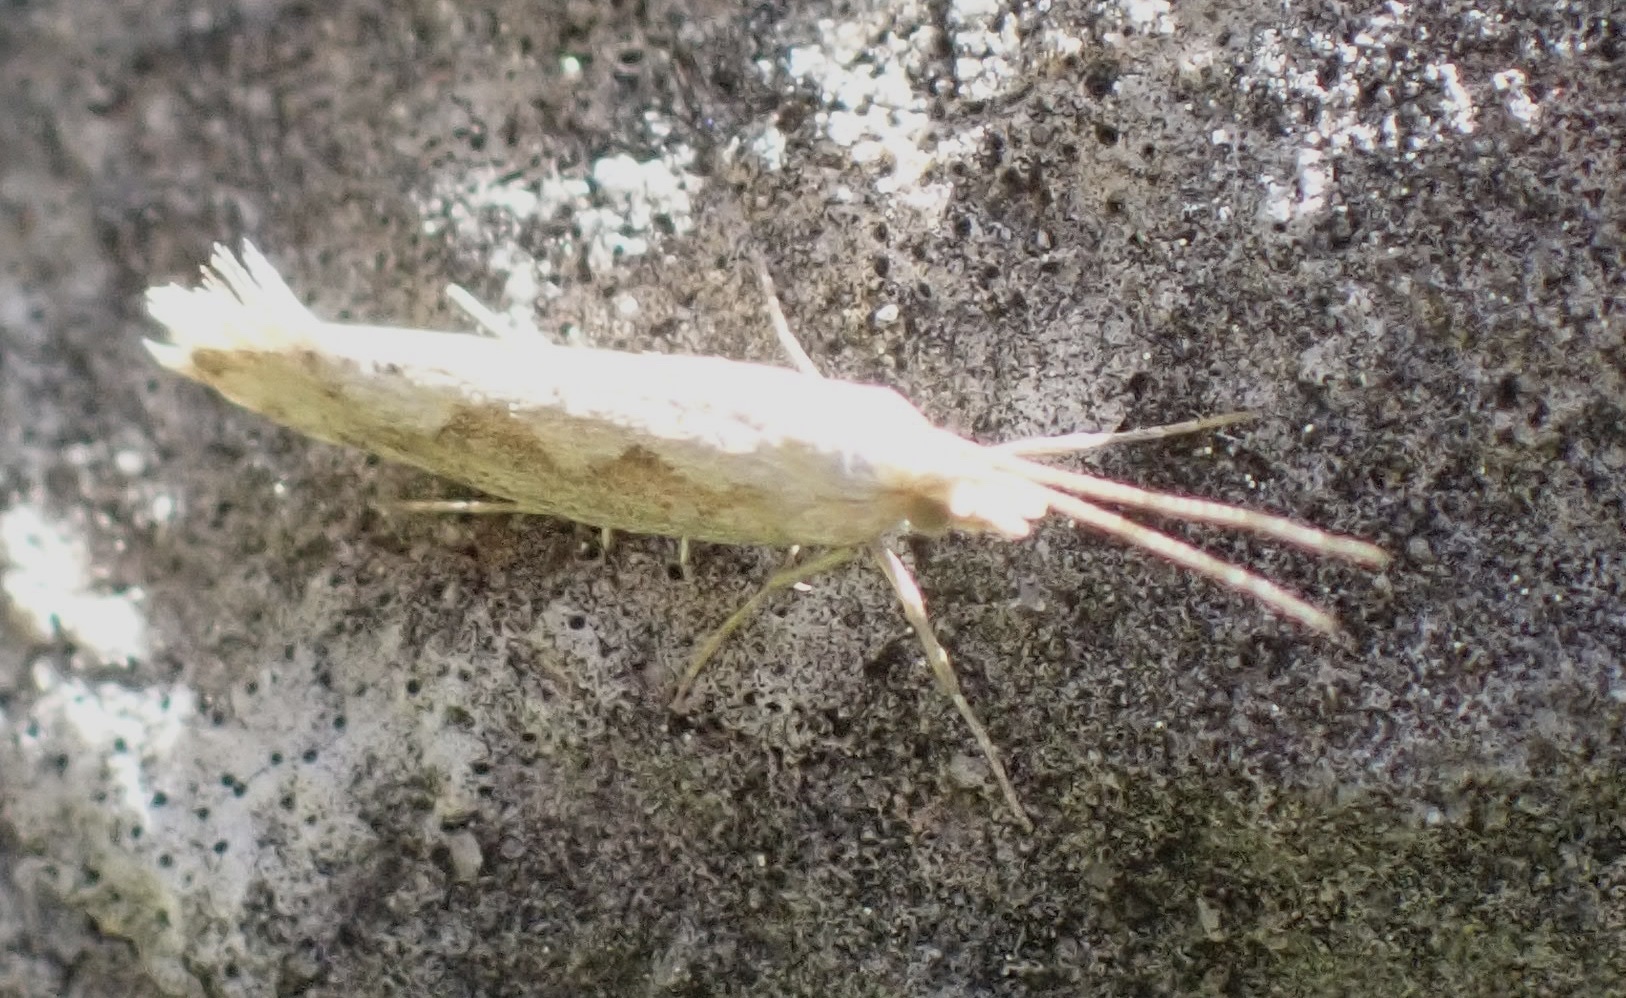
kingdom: Animalia
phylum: Arthropoda
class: Insecta
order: Lepidoptera
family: Plutellidae
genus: Plutella
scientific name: Plutella xylostella
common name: Diamond-back moth
